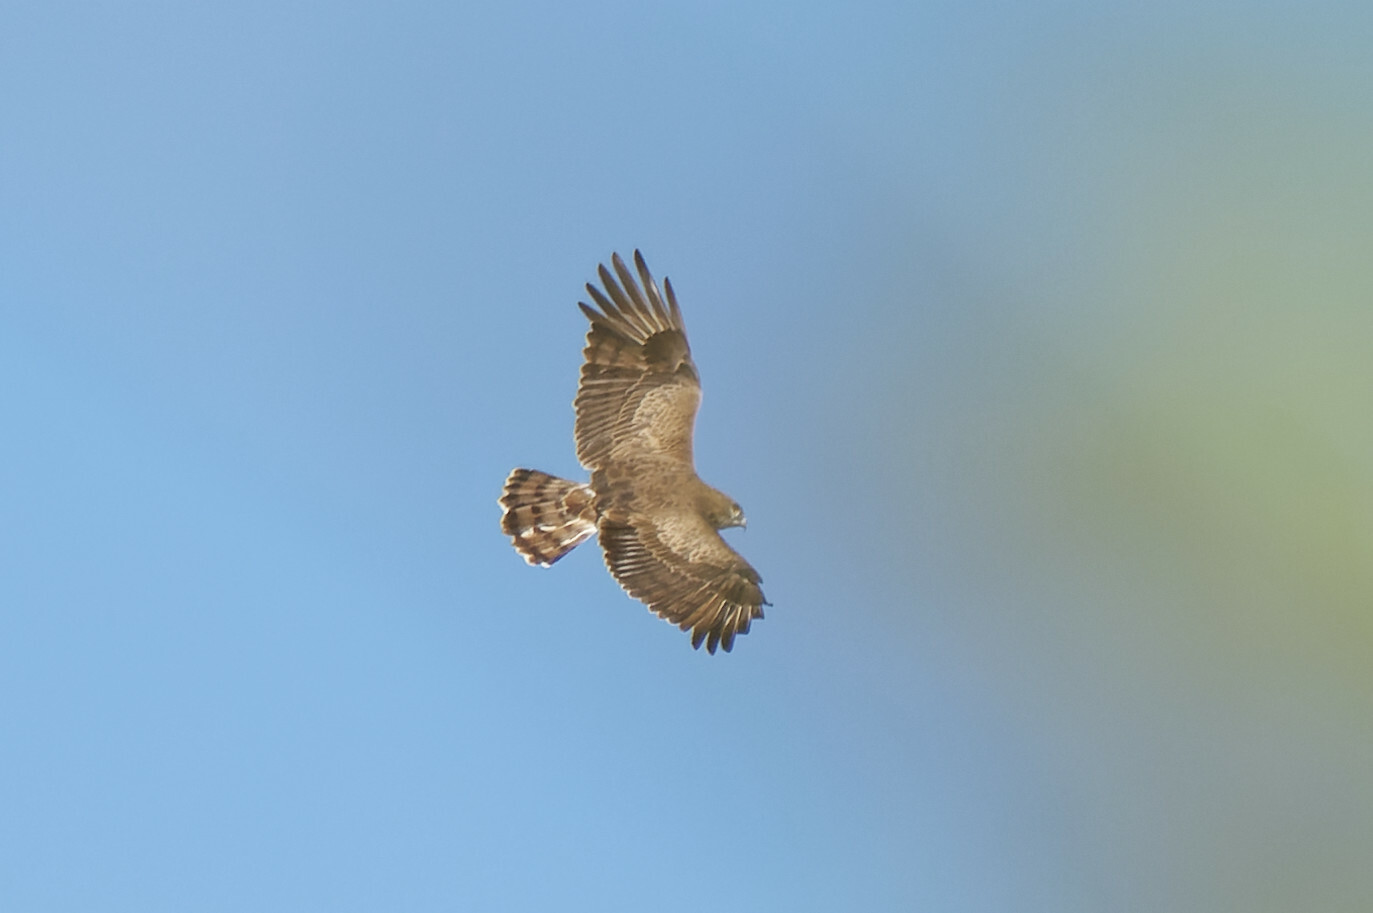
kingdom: Animalia
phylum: Chordata
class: Aves
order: Accipitriformes
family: Accipitridae
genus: Circaetus
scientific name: Circaetus gallicus
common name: Short-toed snake eagle
